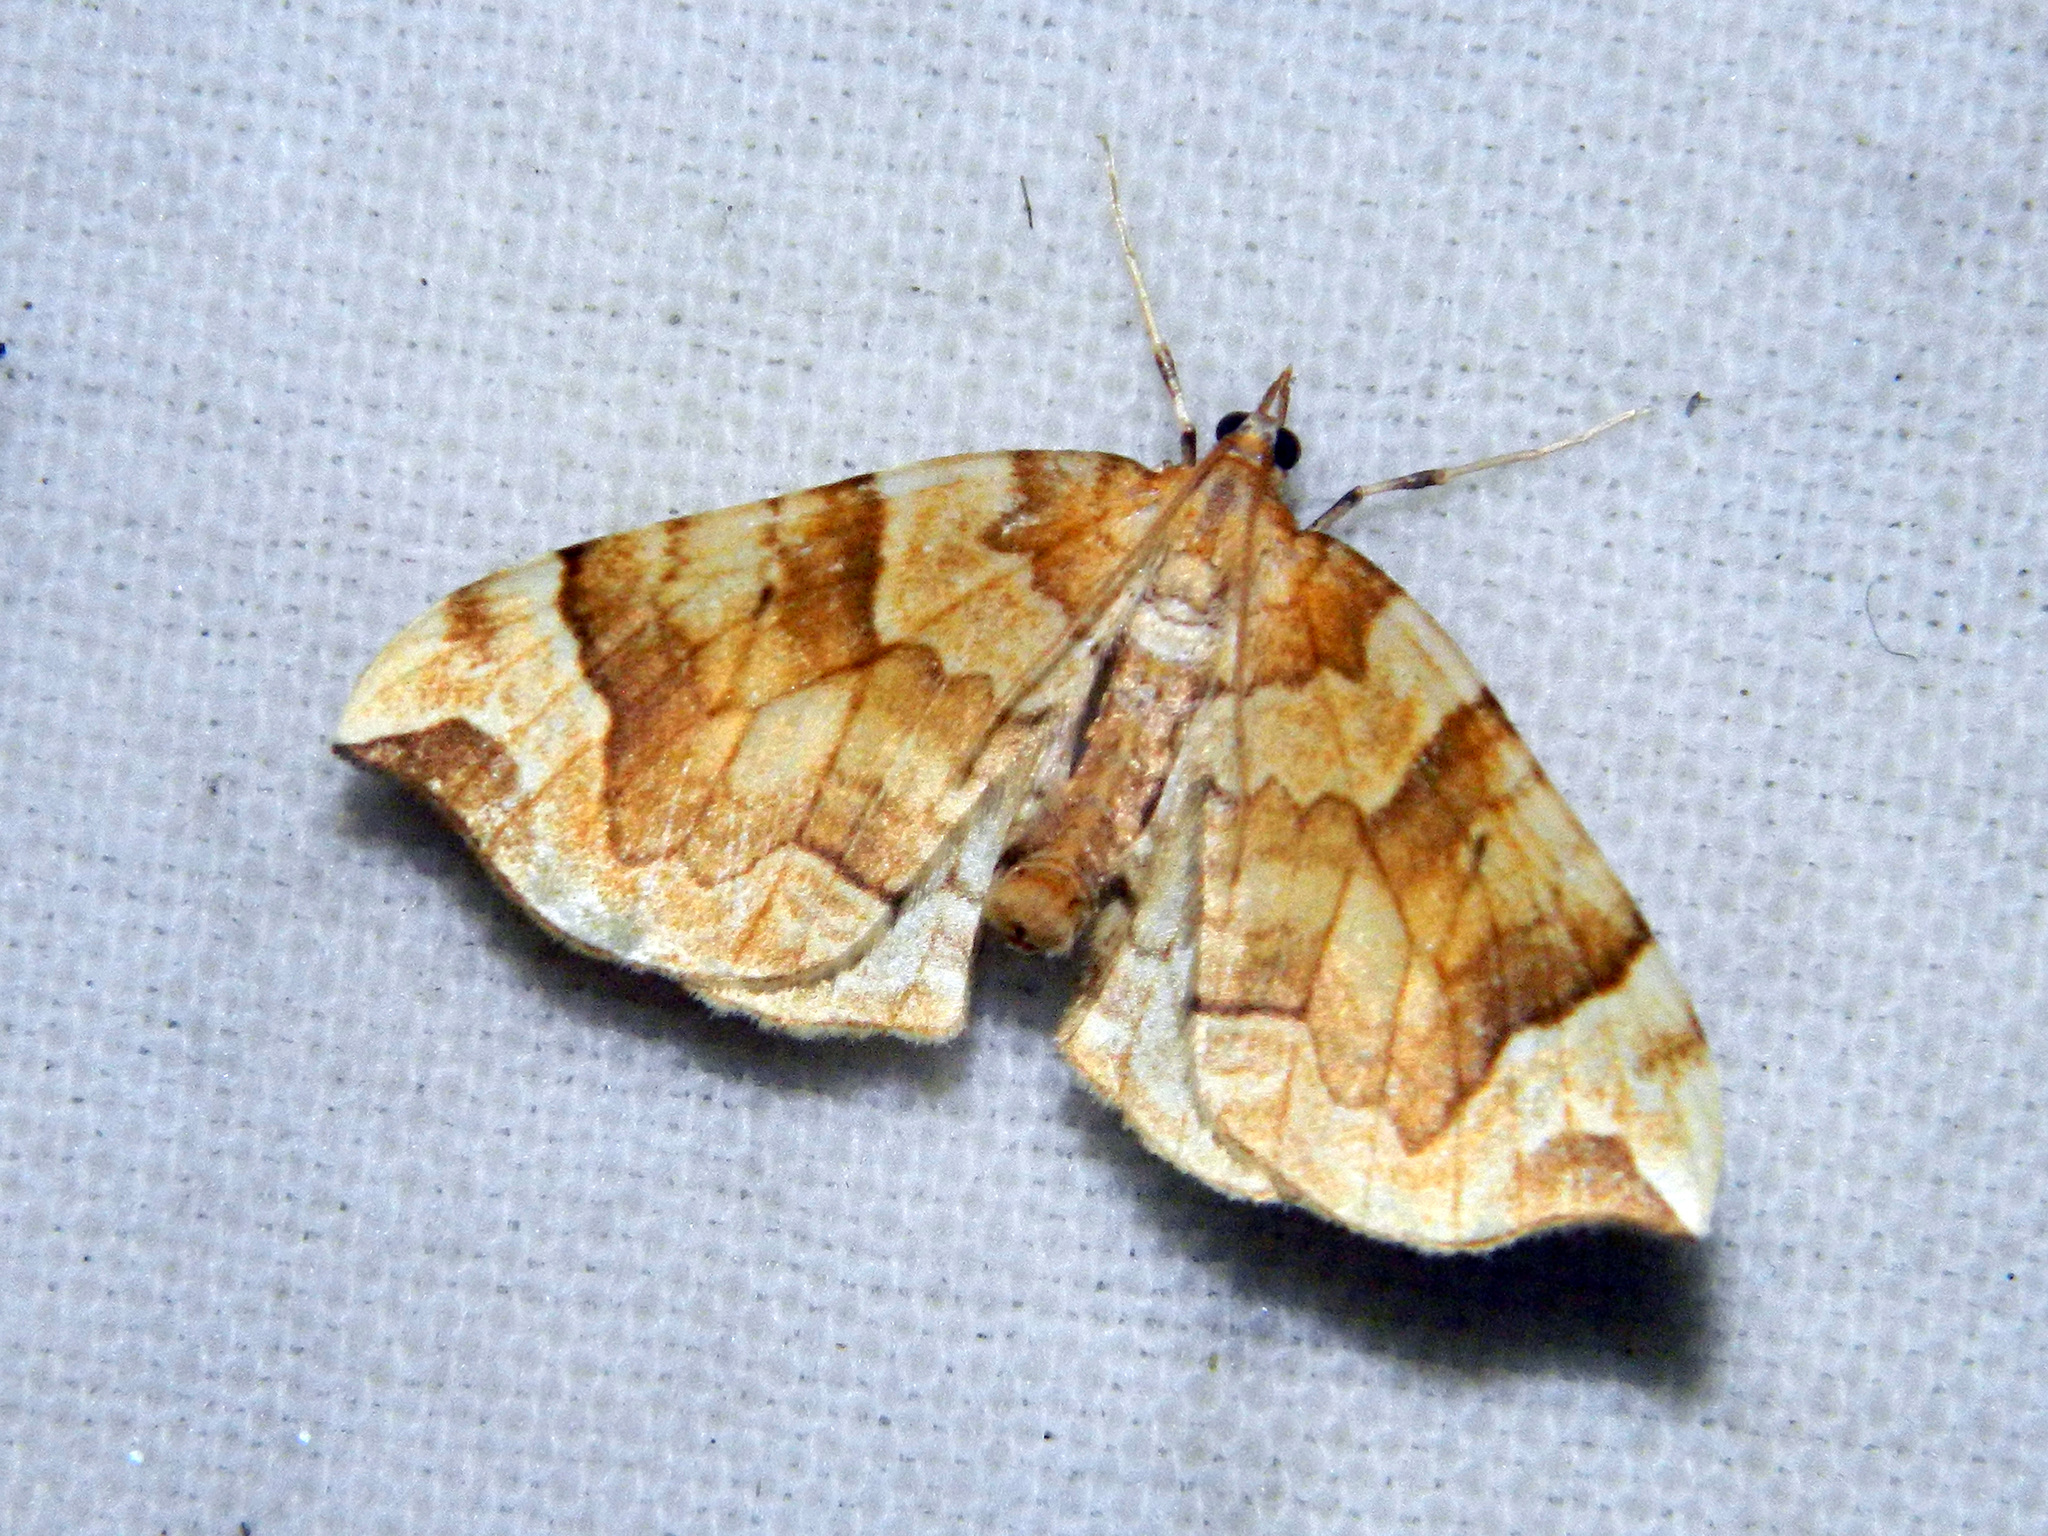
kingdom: Animalia
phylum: Arthropoda
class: Insecta
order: Lepidoptera
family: Geometridae
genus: Eulithis
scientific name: Eulithis propulsata
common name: Currant eulithis moth
